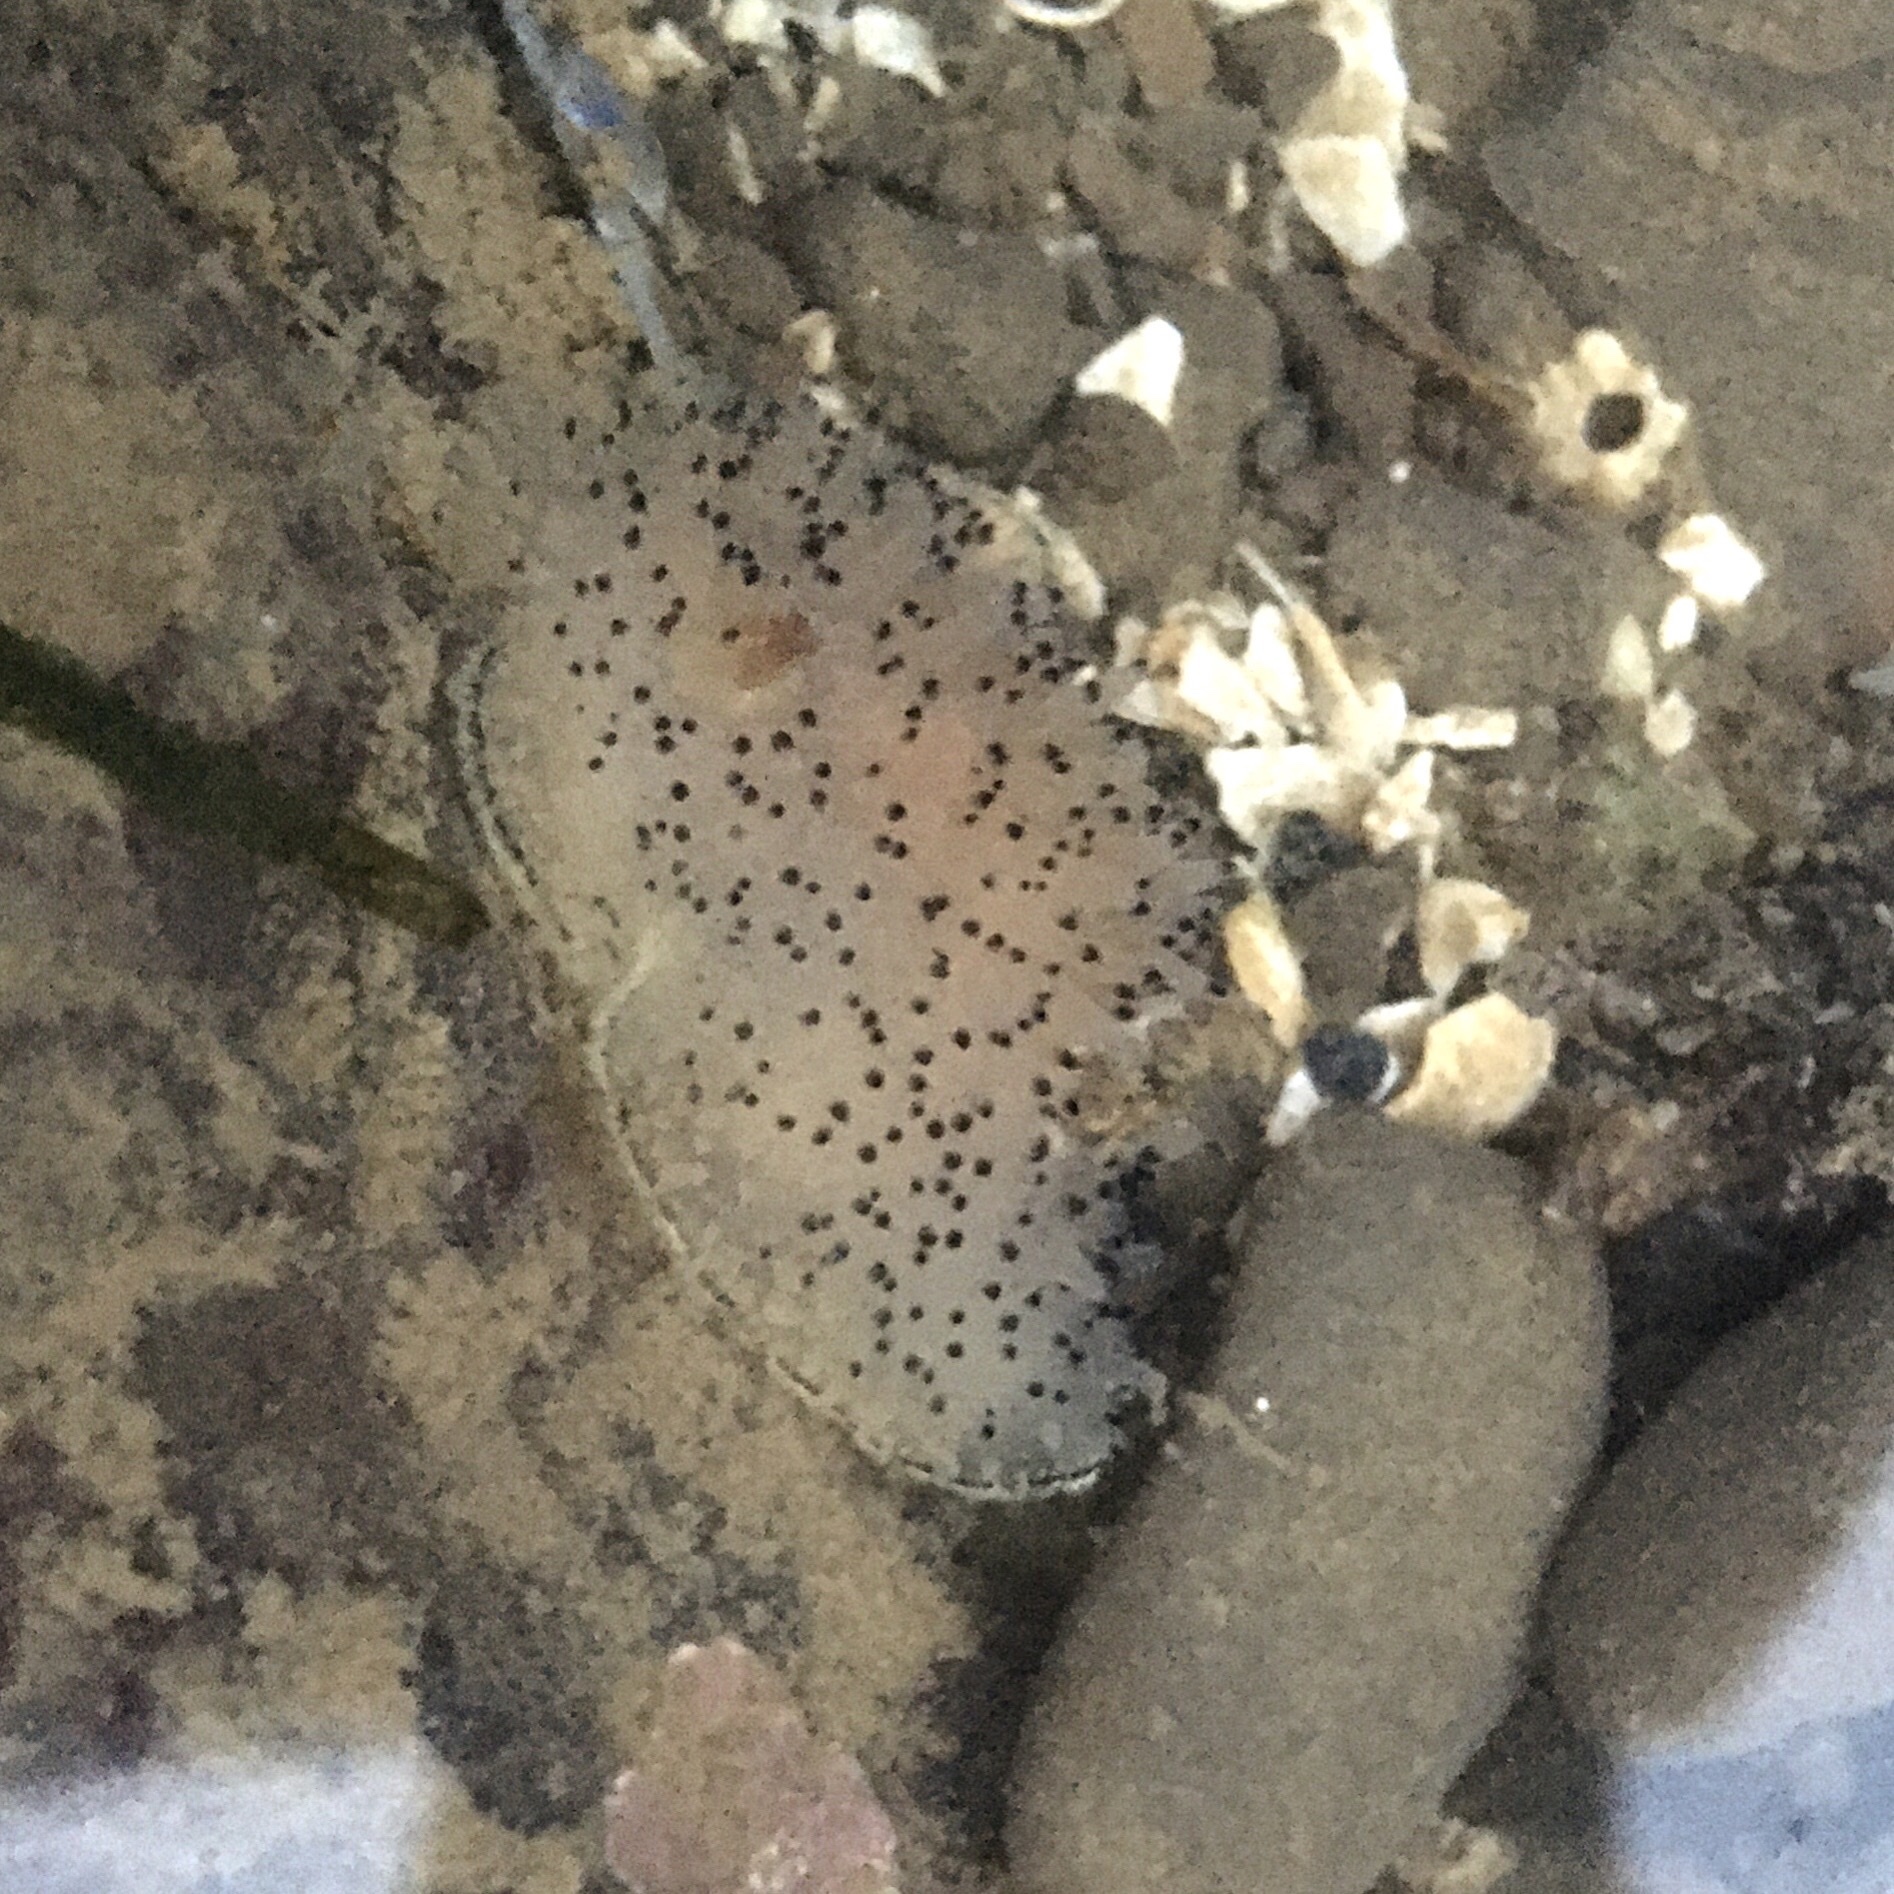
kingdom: Animalia
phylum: Mollusca
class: Gastropoda
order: Nudibranchia
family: Onchidorididae
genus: Acanthodoris
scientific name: Acanthodoris rhodoceras
